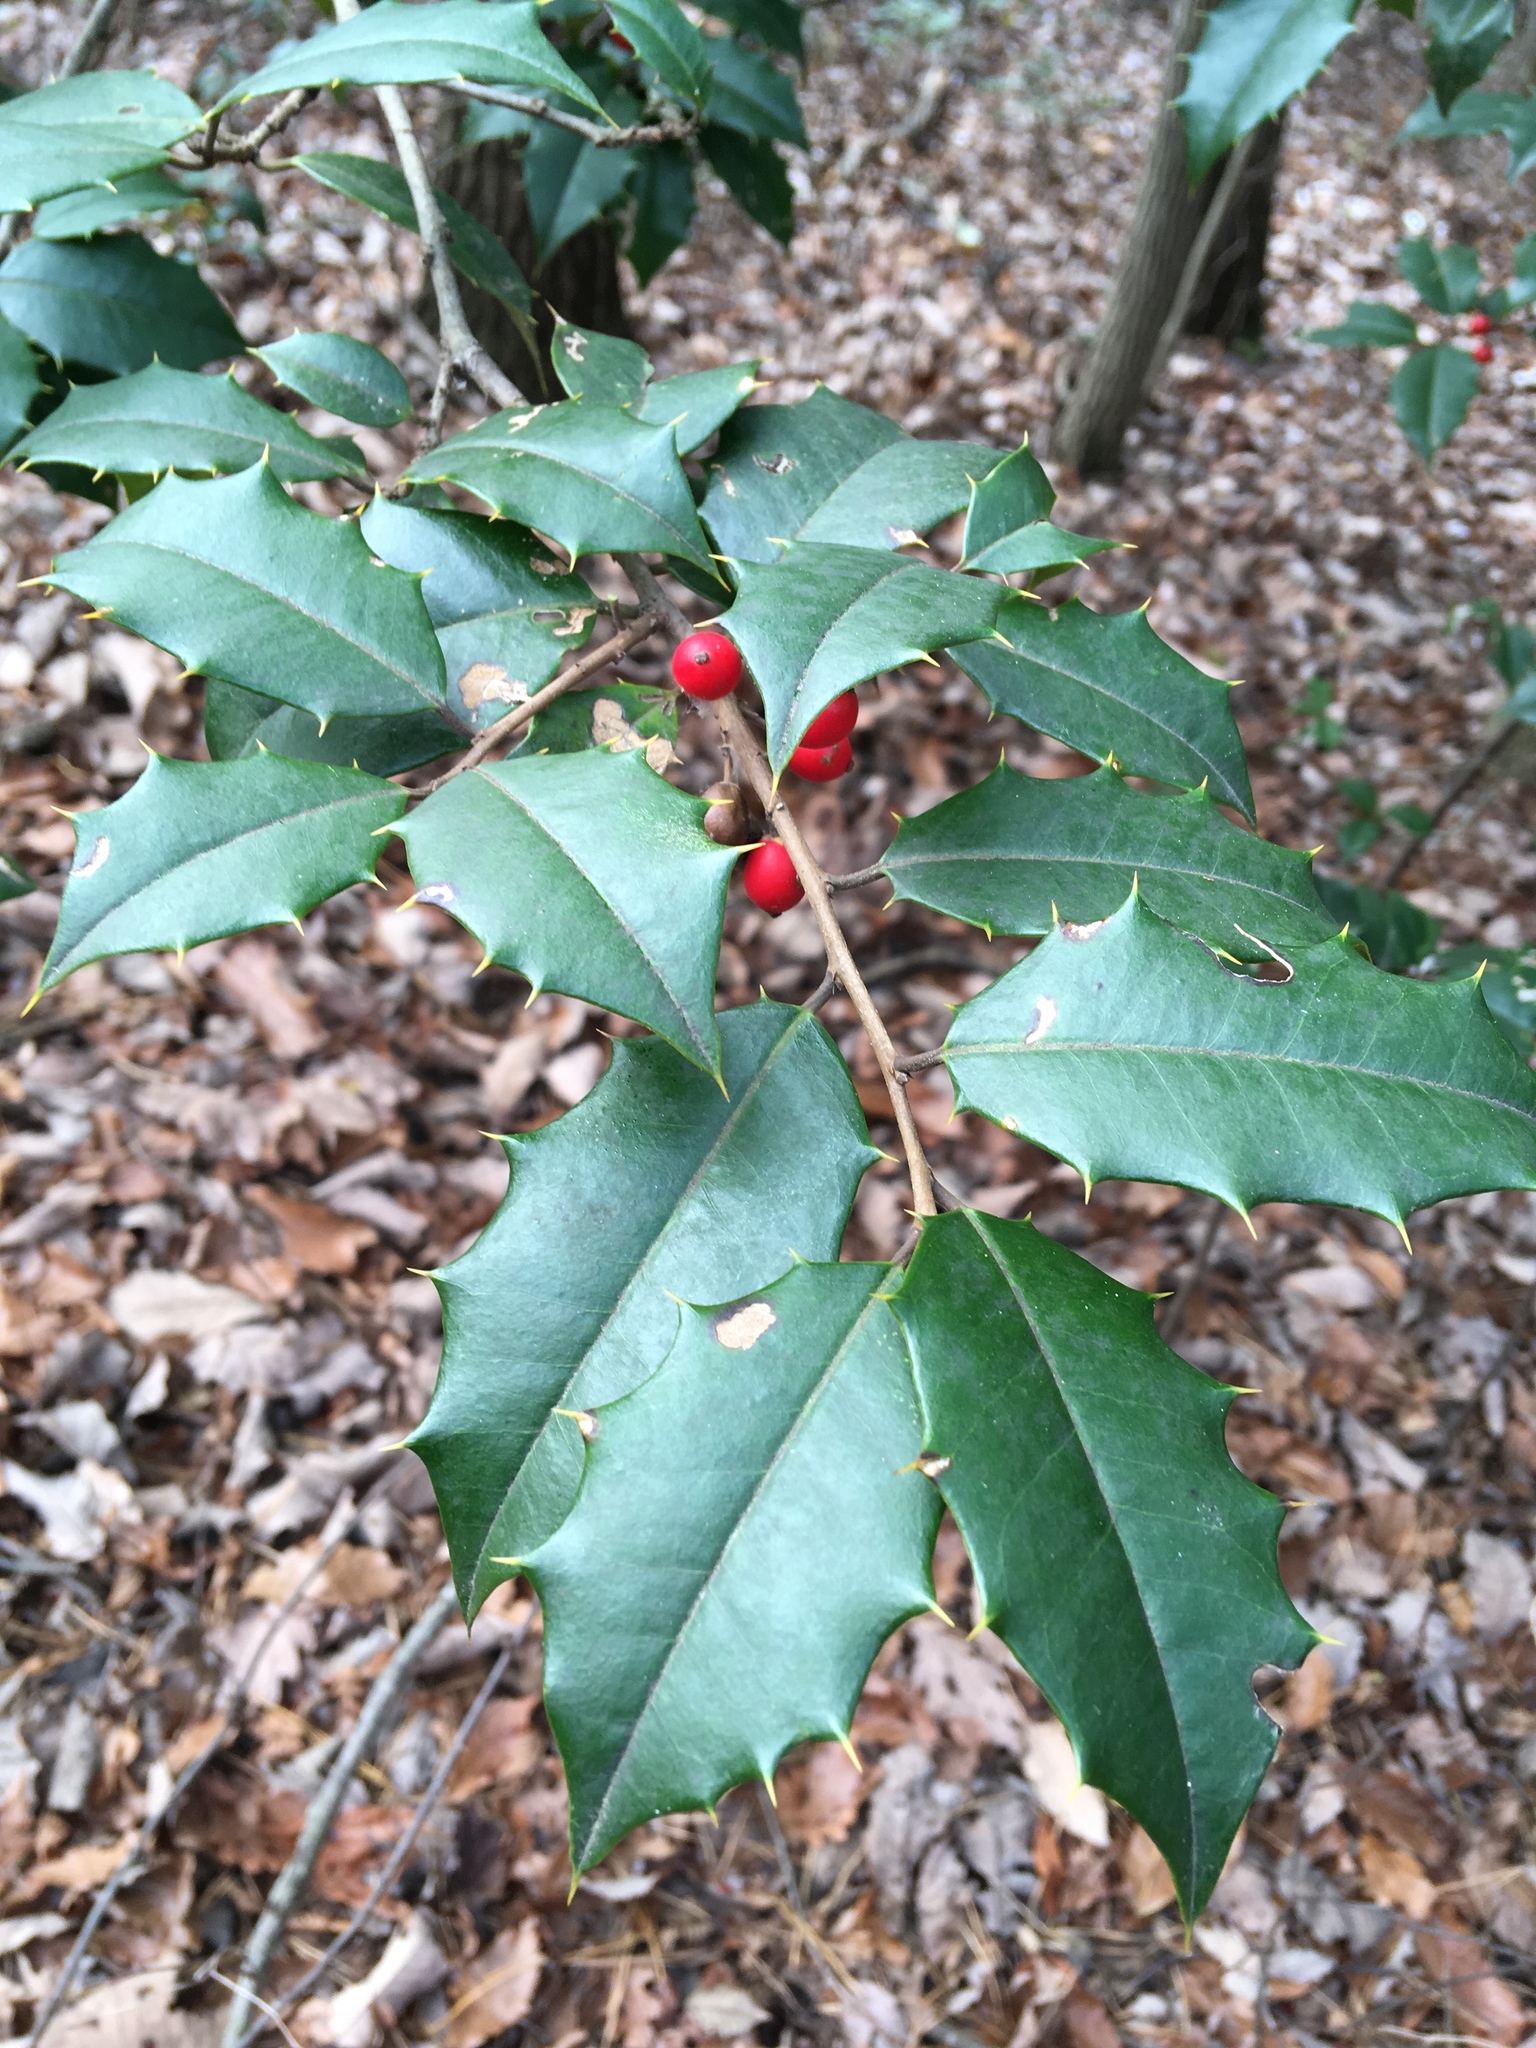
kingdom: Plantae
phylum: Tracheophyta
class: Magnoliopsida
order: Aquifoliales
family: Aquifoliaceae
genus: Ilex
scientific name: Ilex opaca
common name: American holly
